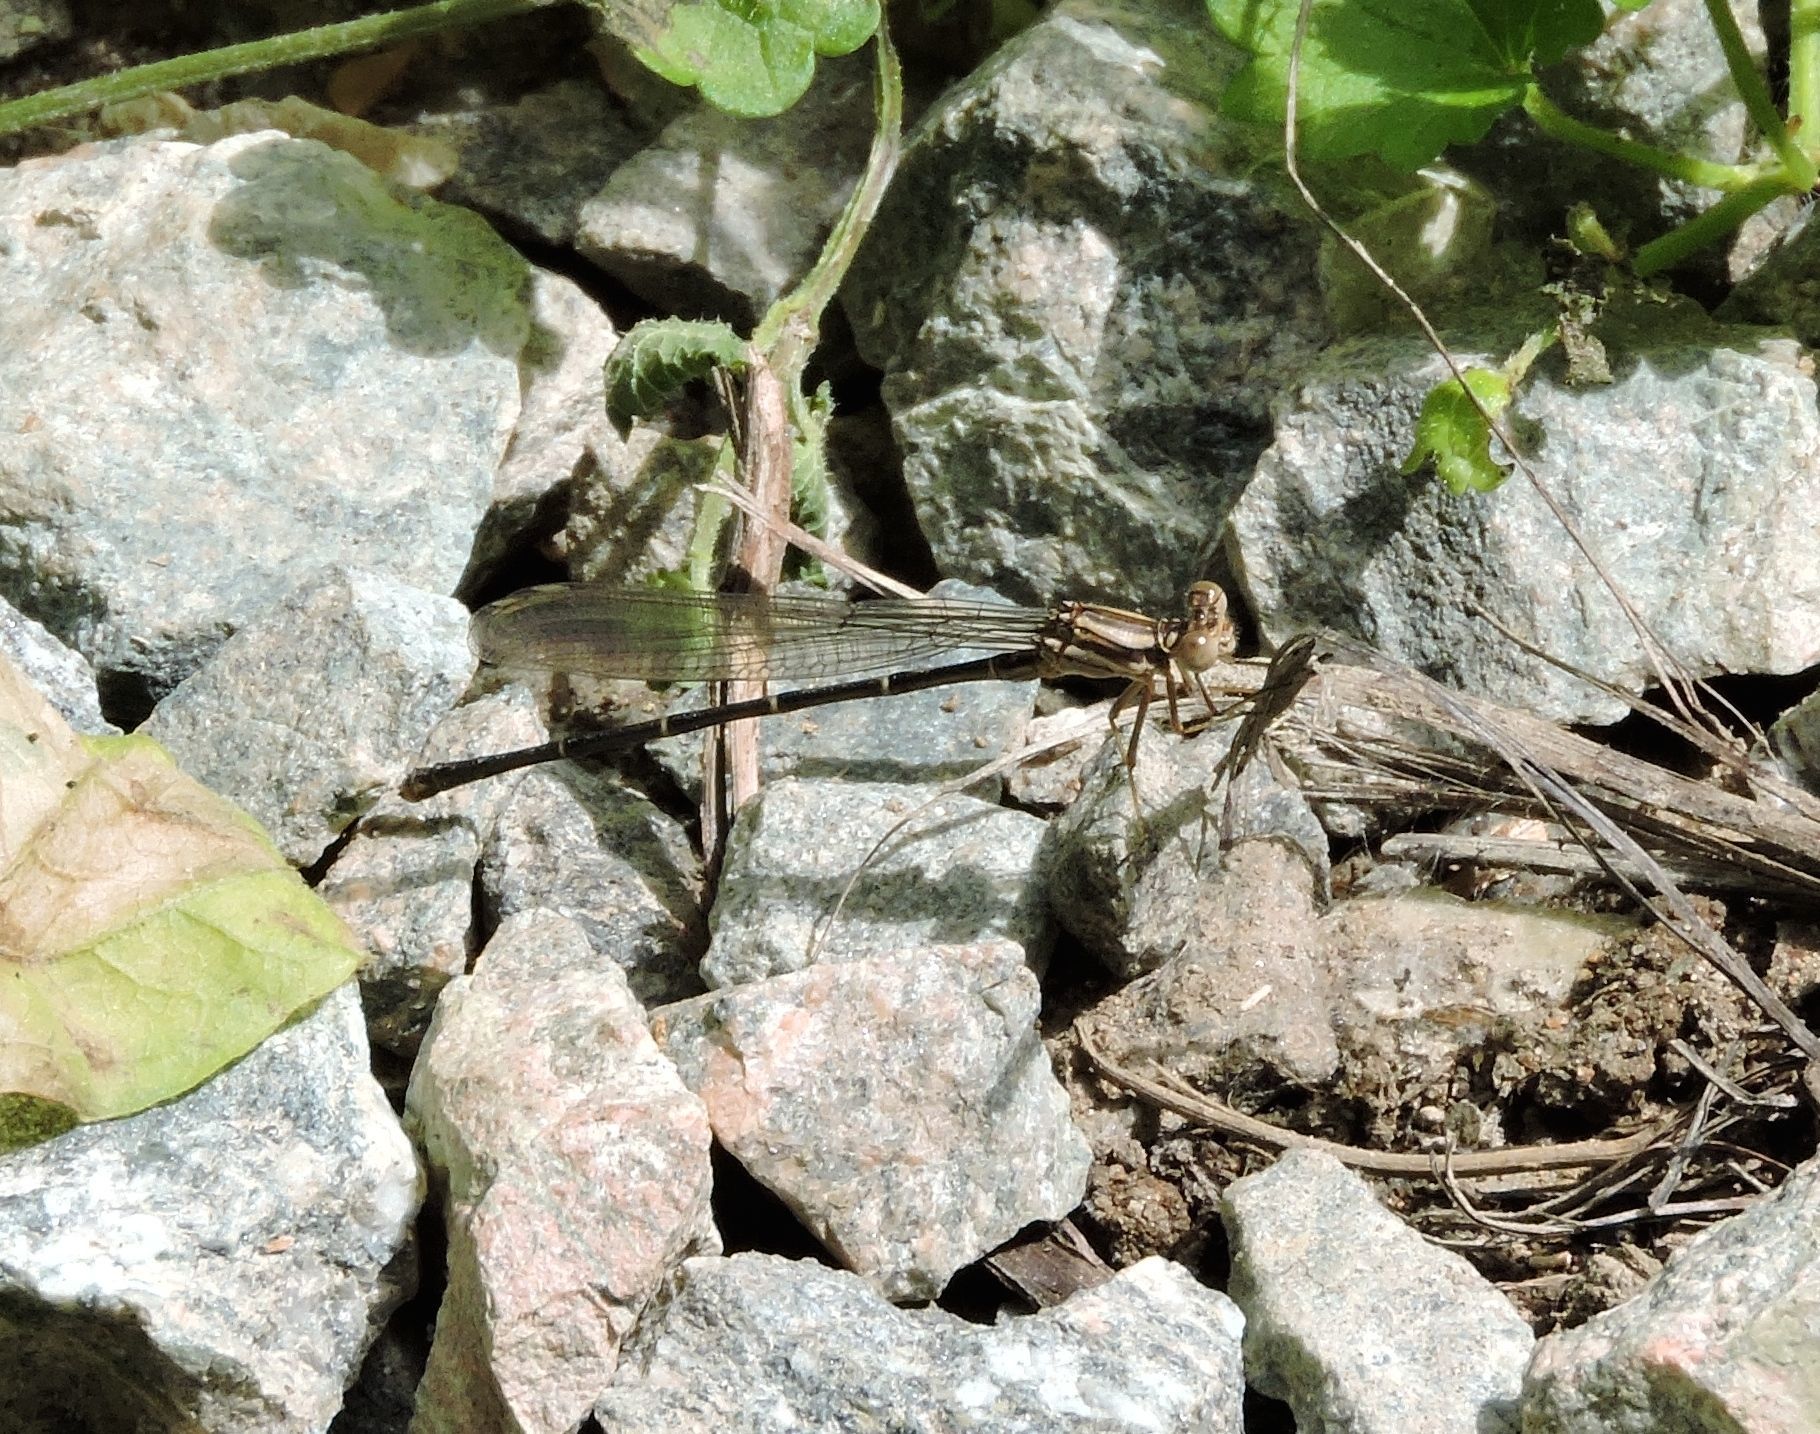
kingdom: Animalia
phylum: Arthropoda
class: Insecta
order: Odonata
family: Coenagrionidae
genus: Argia
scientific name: Argia moesta
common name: Powdered dancer
